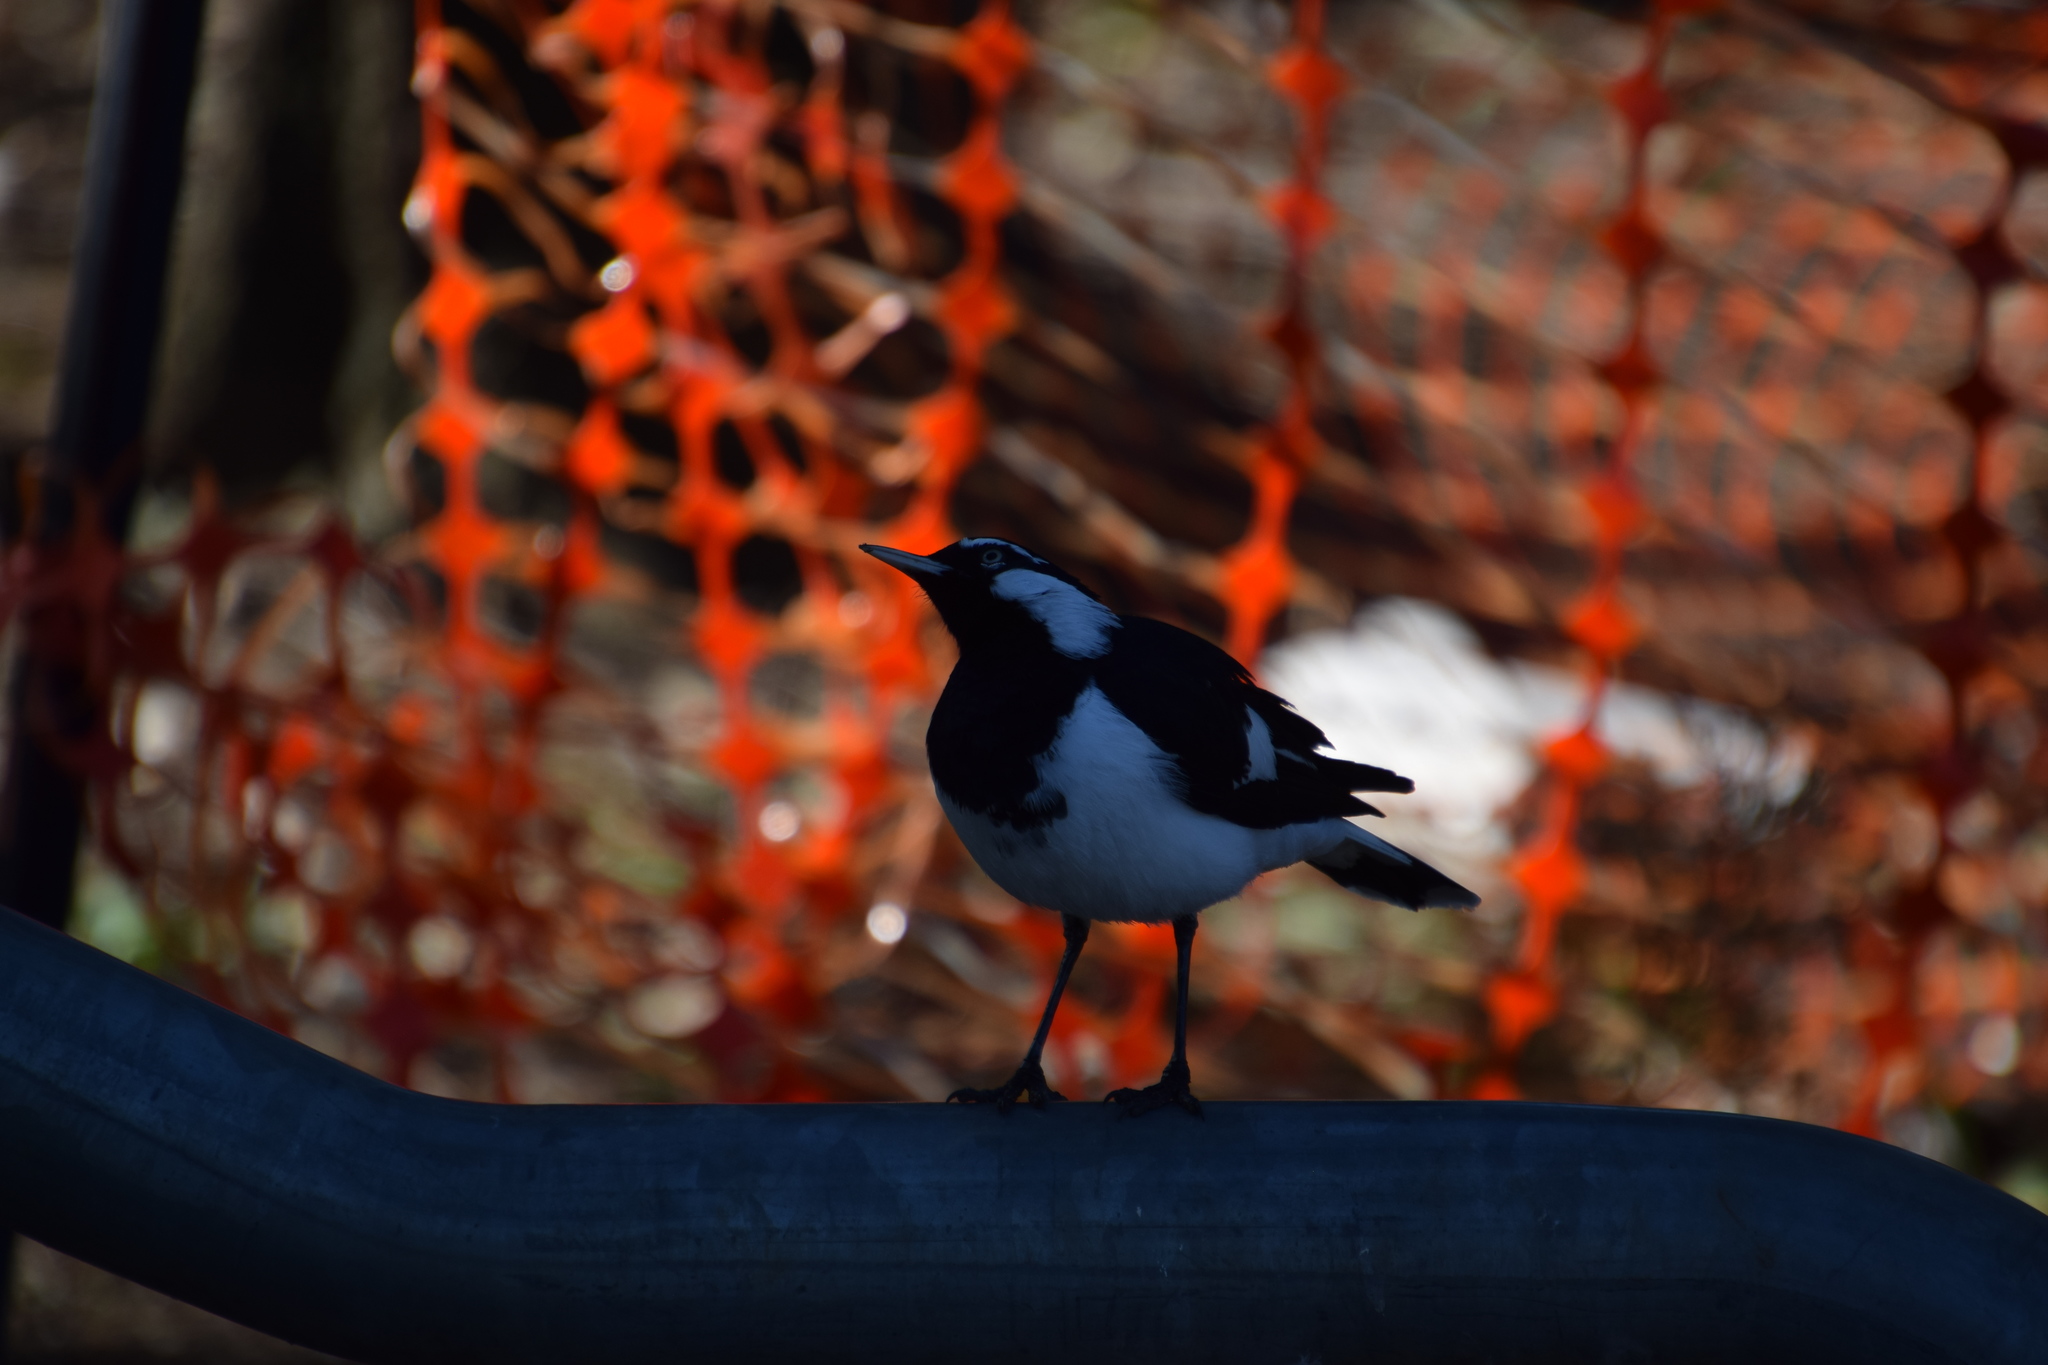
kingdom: Animalia
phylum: Chordata
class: Aves
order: Passeriformes
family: Monarchidae
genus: Grallina
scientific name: Grallina cyanoleuca
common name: Magpie-lark
